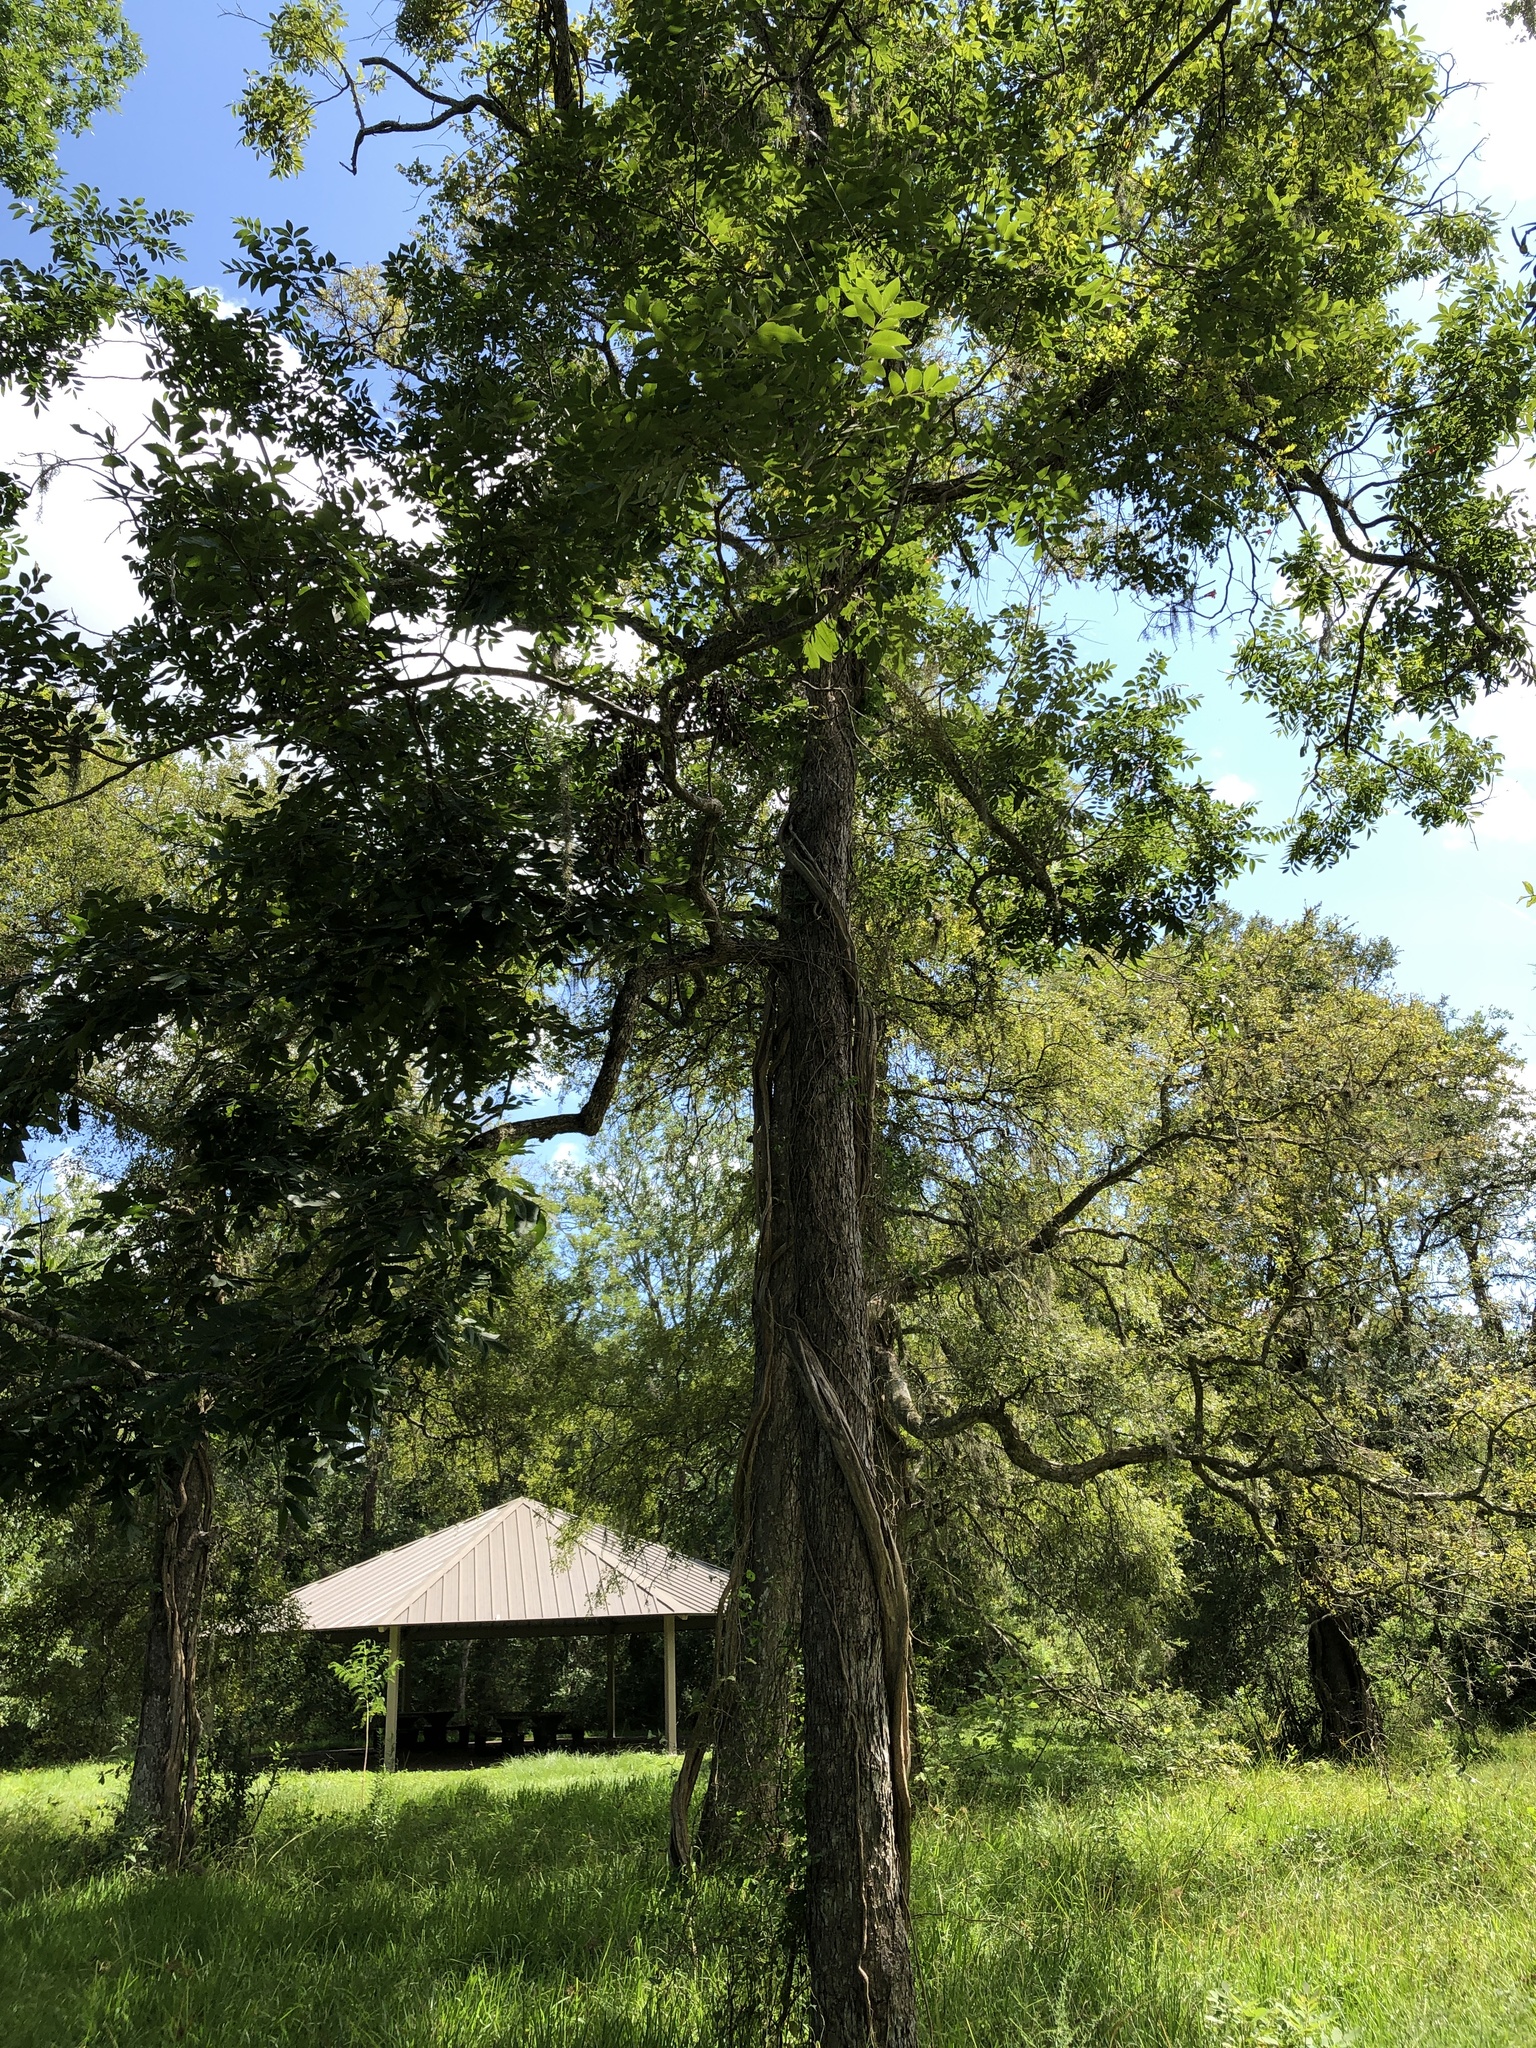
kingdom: Plantae
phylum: Tracheophyta
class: Magnoliopsida
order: Fagales
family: Juglandaceae
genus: Carya
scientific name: Carya illinoinensis
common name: Pecan
